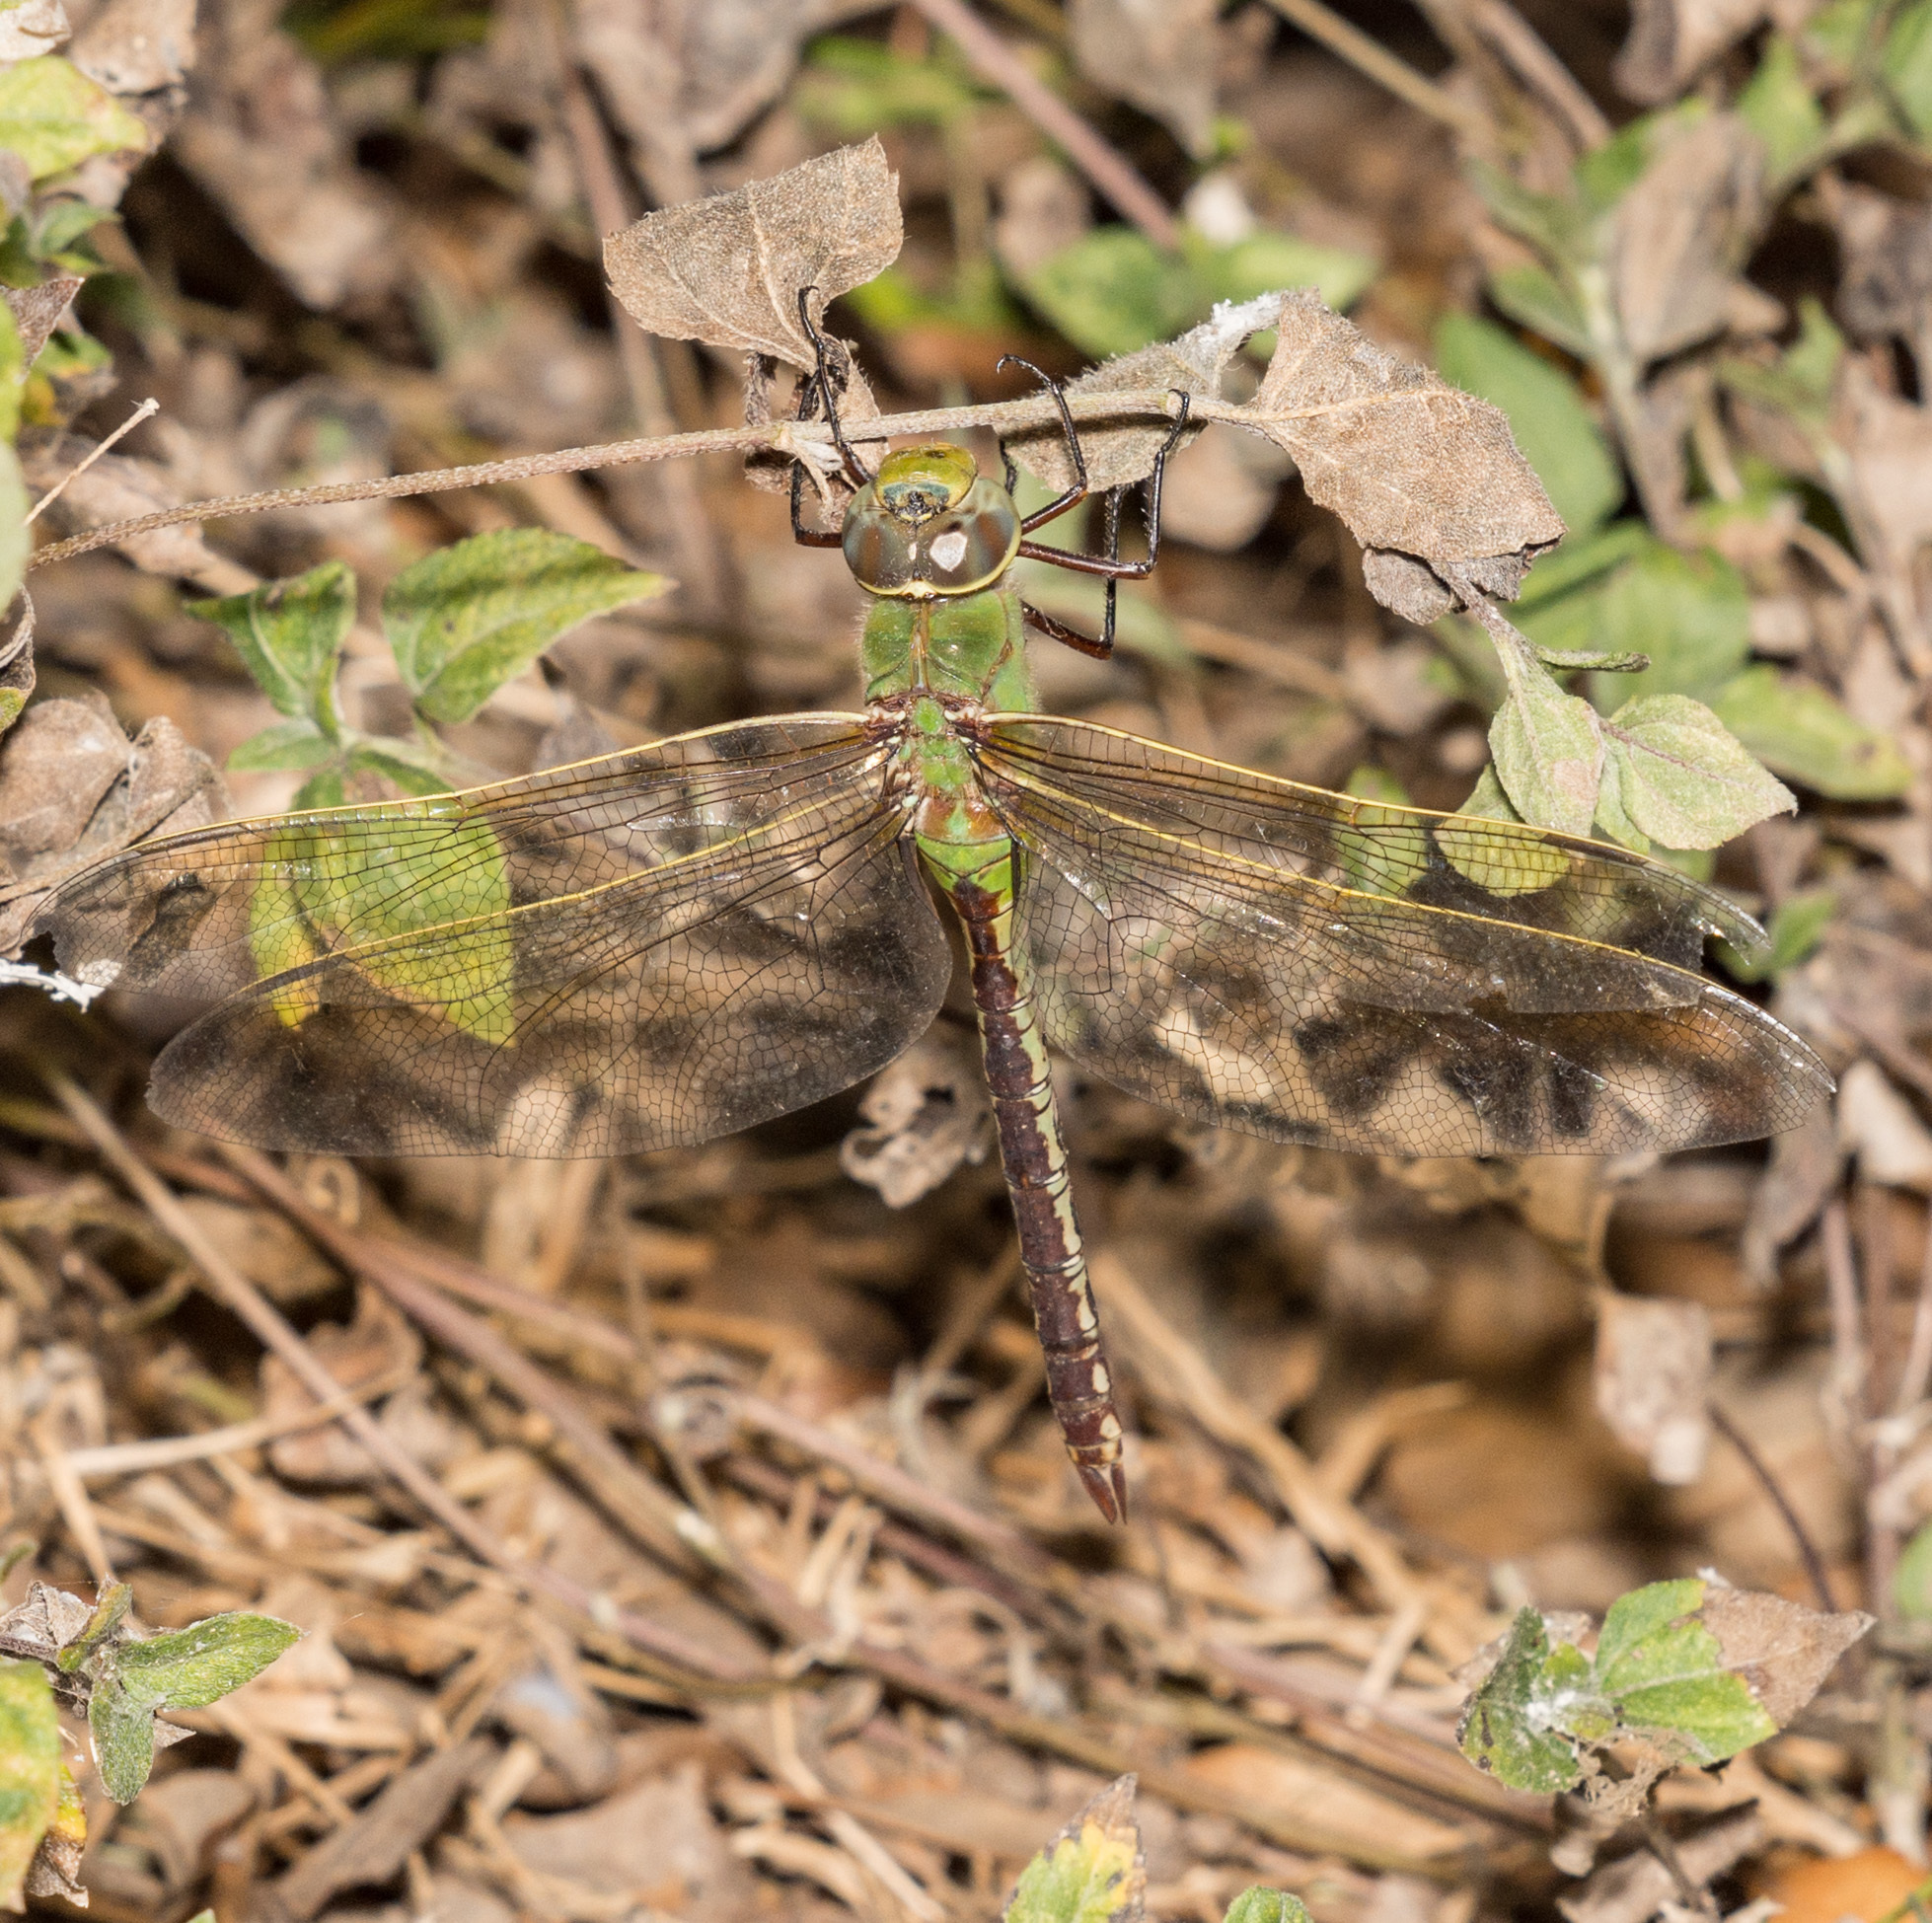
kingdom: Animalia
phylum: Arthropoda
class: Insecta
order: Odonata
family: Aeshnidae
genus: Anax
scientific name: Anax junius
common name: Common green darner
